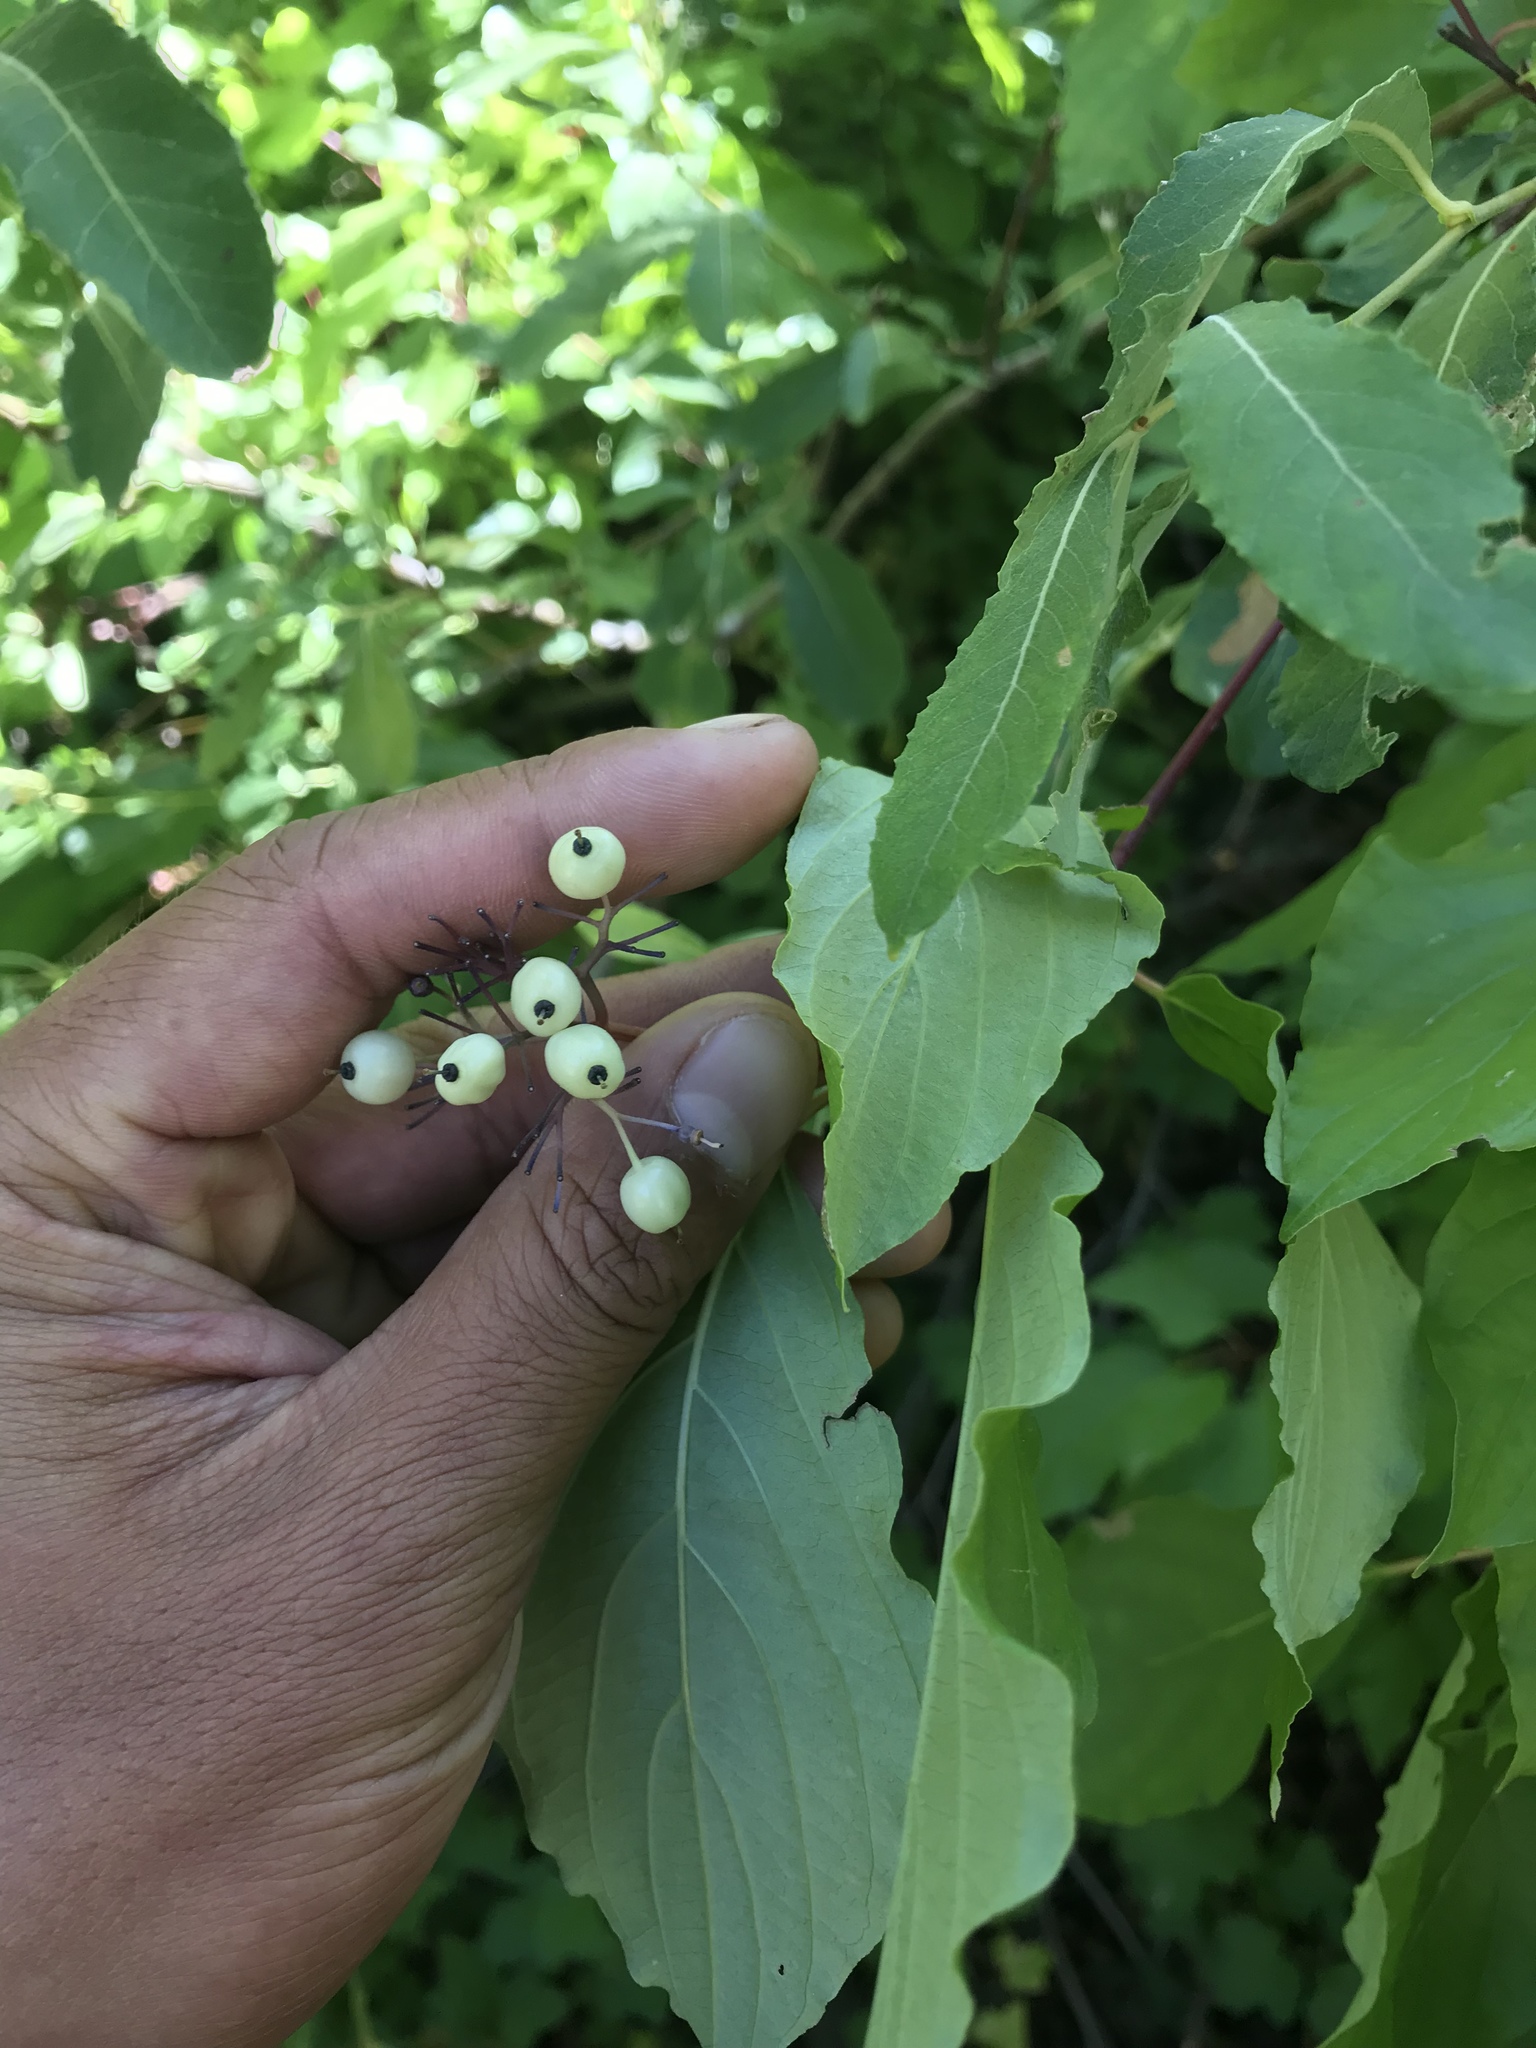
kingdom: Plantae
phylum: Tracheophyta
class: Magnoliopsida
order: Cornales
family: Cornaceae
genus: Cornus
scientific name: Cornus sericea
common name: Red-osier dogwood
